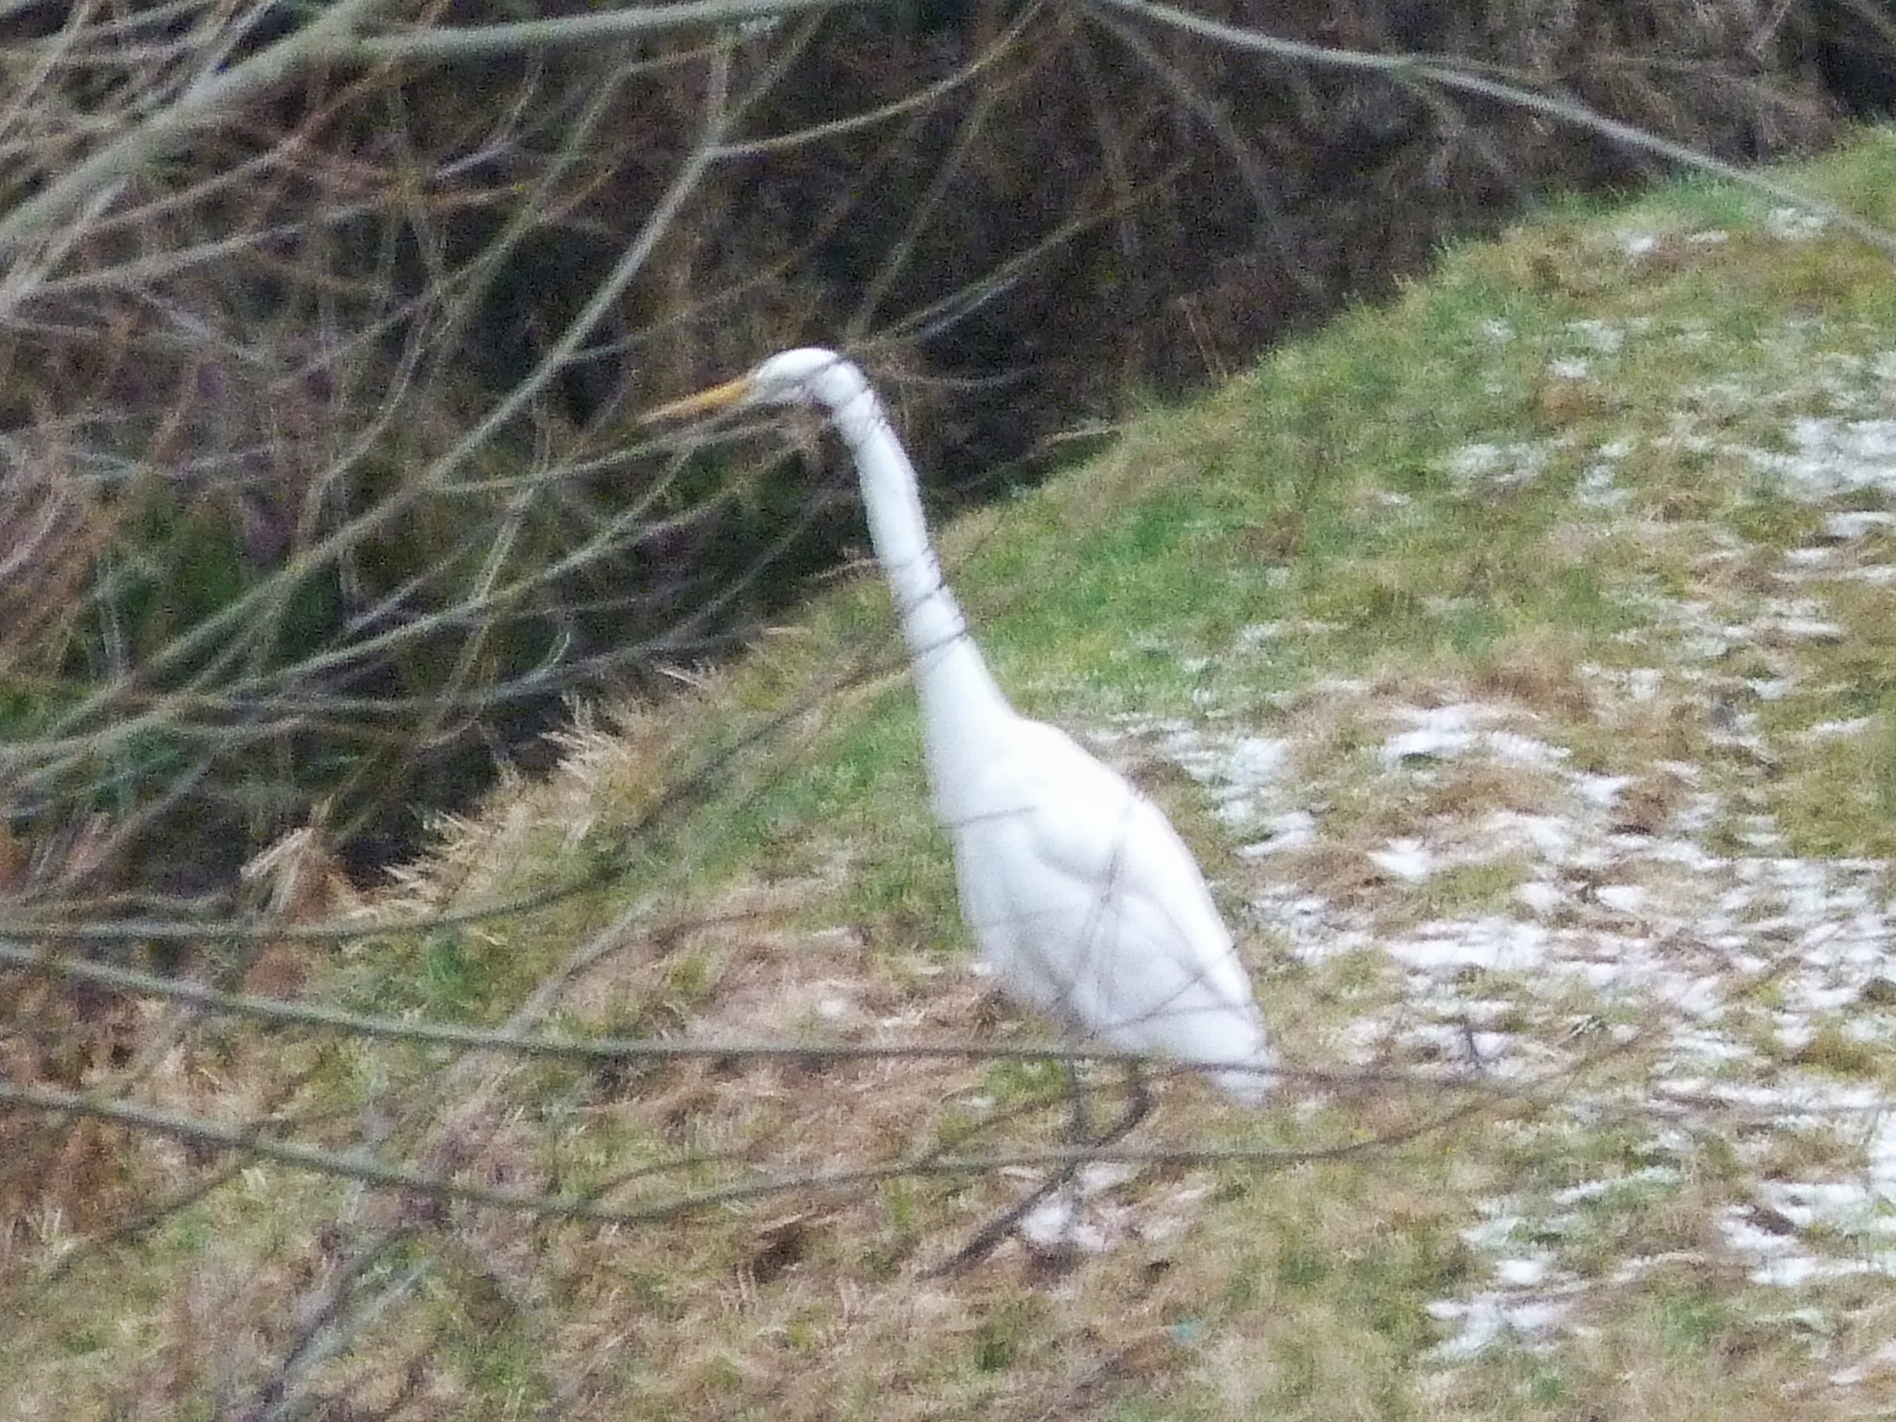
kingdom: Animalia
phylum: Chordata
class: Aves
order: Pelecaniformes
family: Ardeidae
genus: Ardea
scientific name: Ardea alba
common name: Great egret
